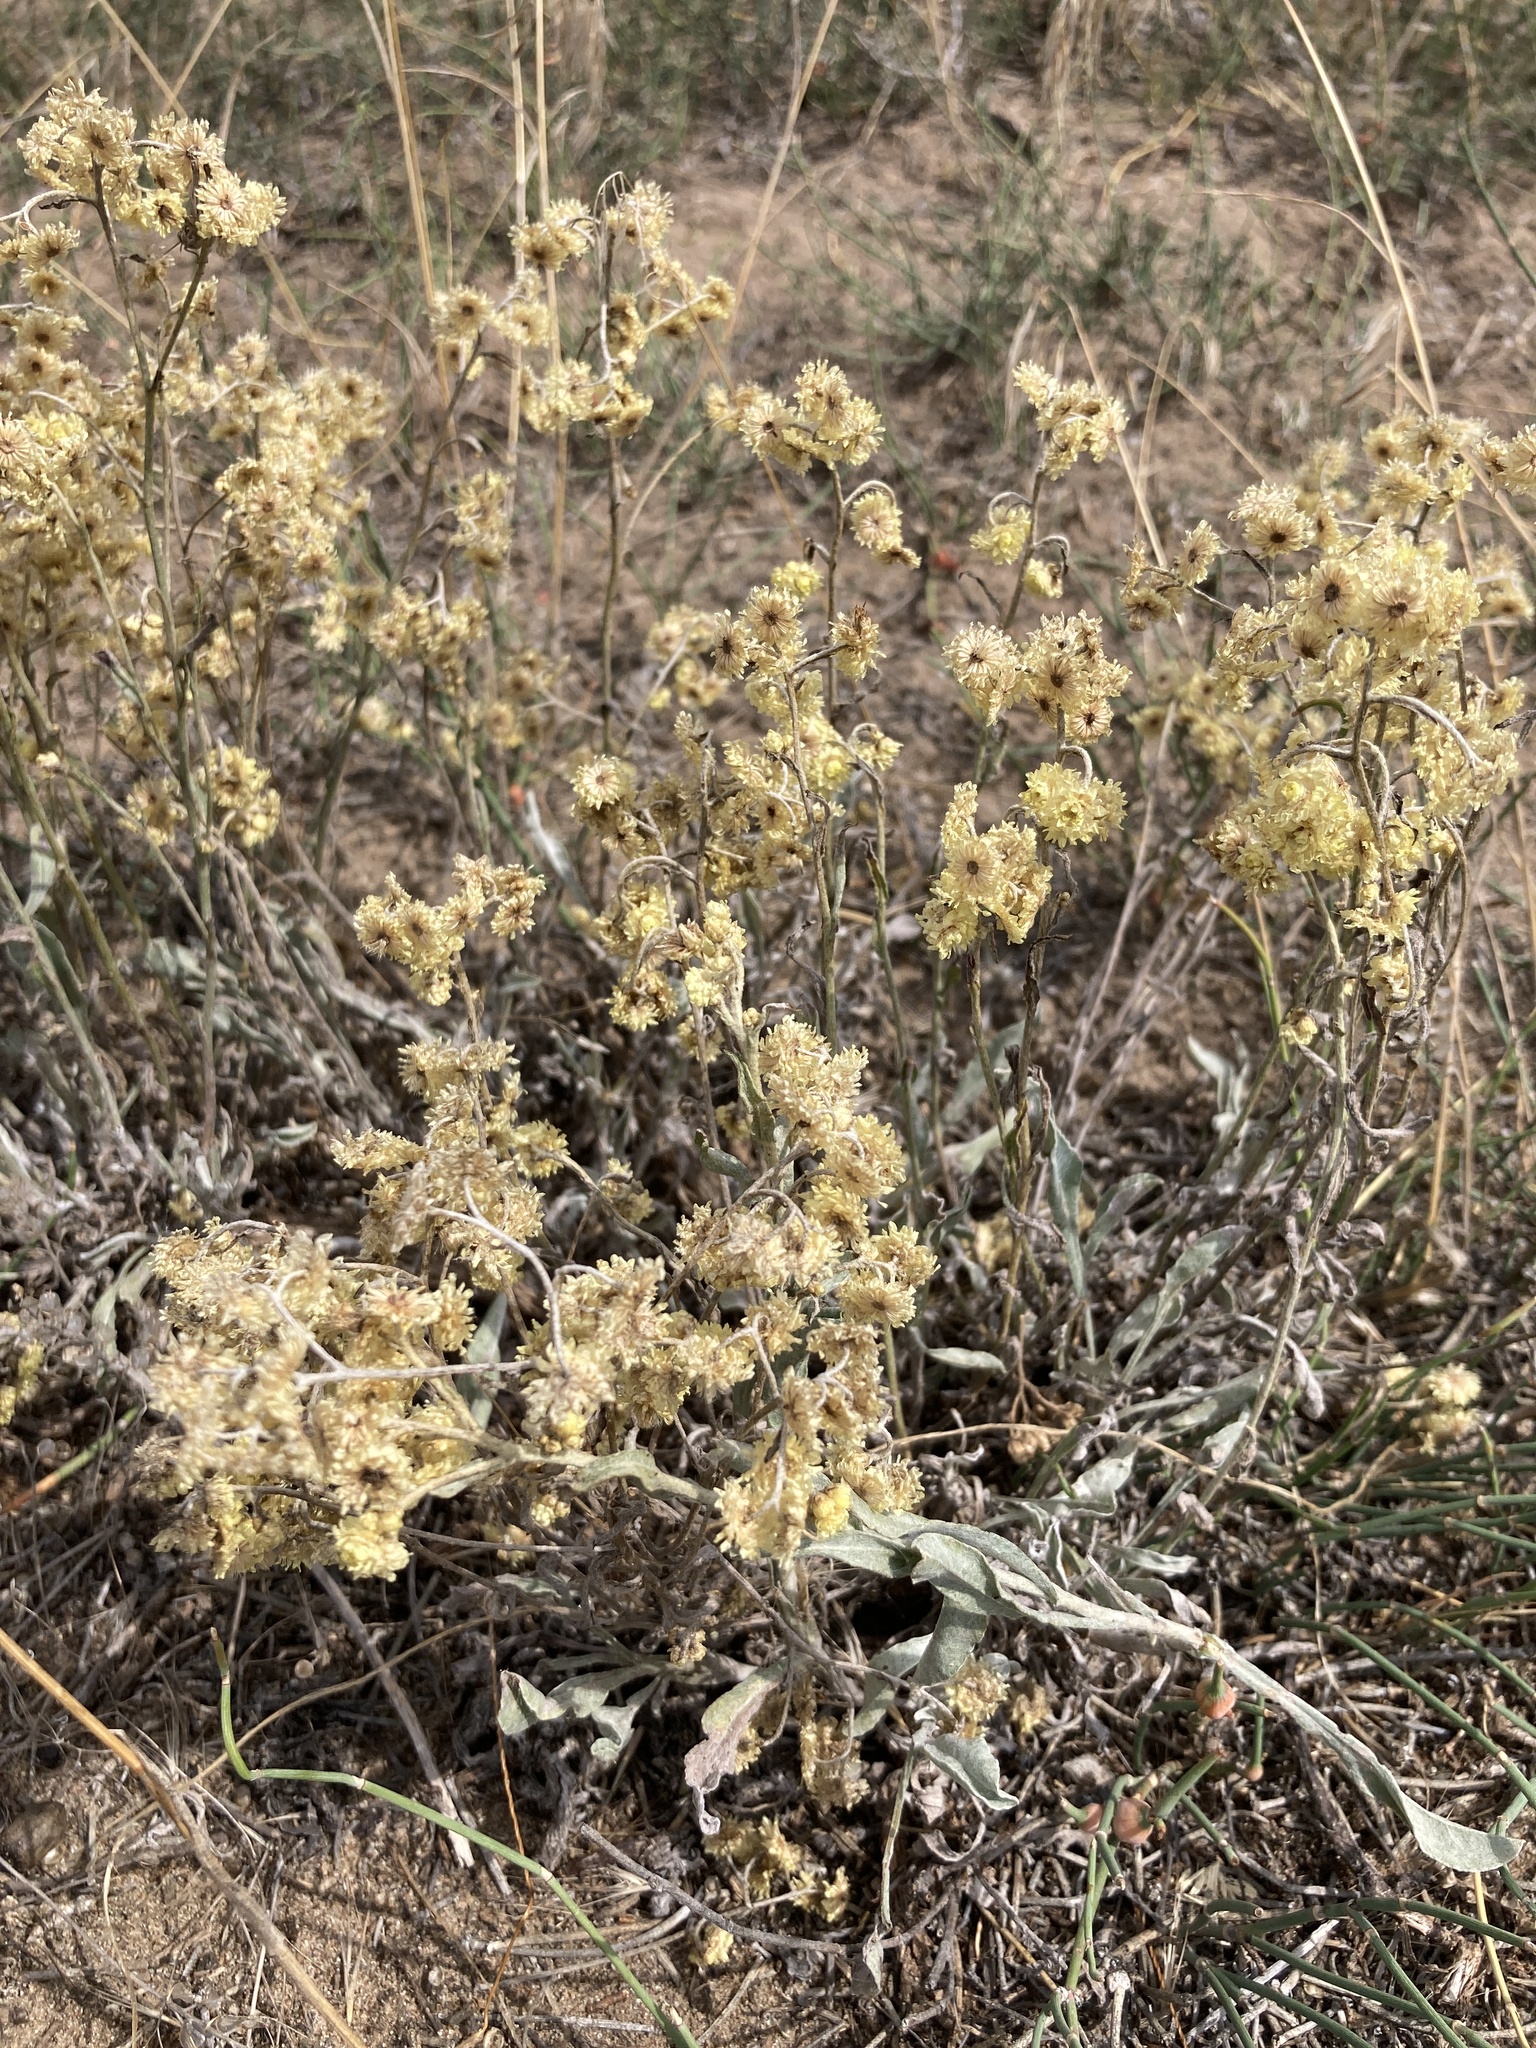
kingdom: Plantae
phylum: Tracheophyta
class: Magnoliopsida
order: Asterales
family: Asteraceae
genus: Helichrysum
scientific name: Helichrysum arenarium
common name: Strawflower
